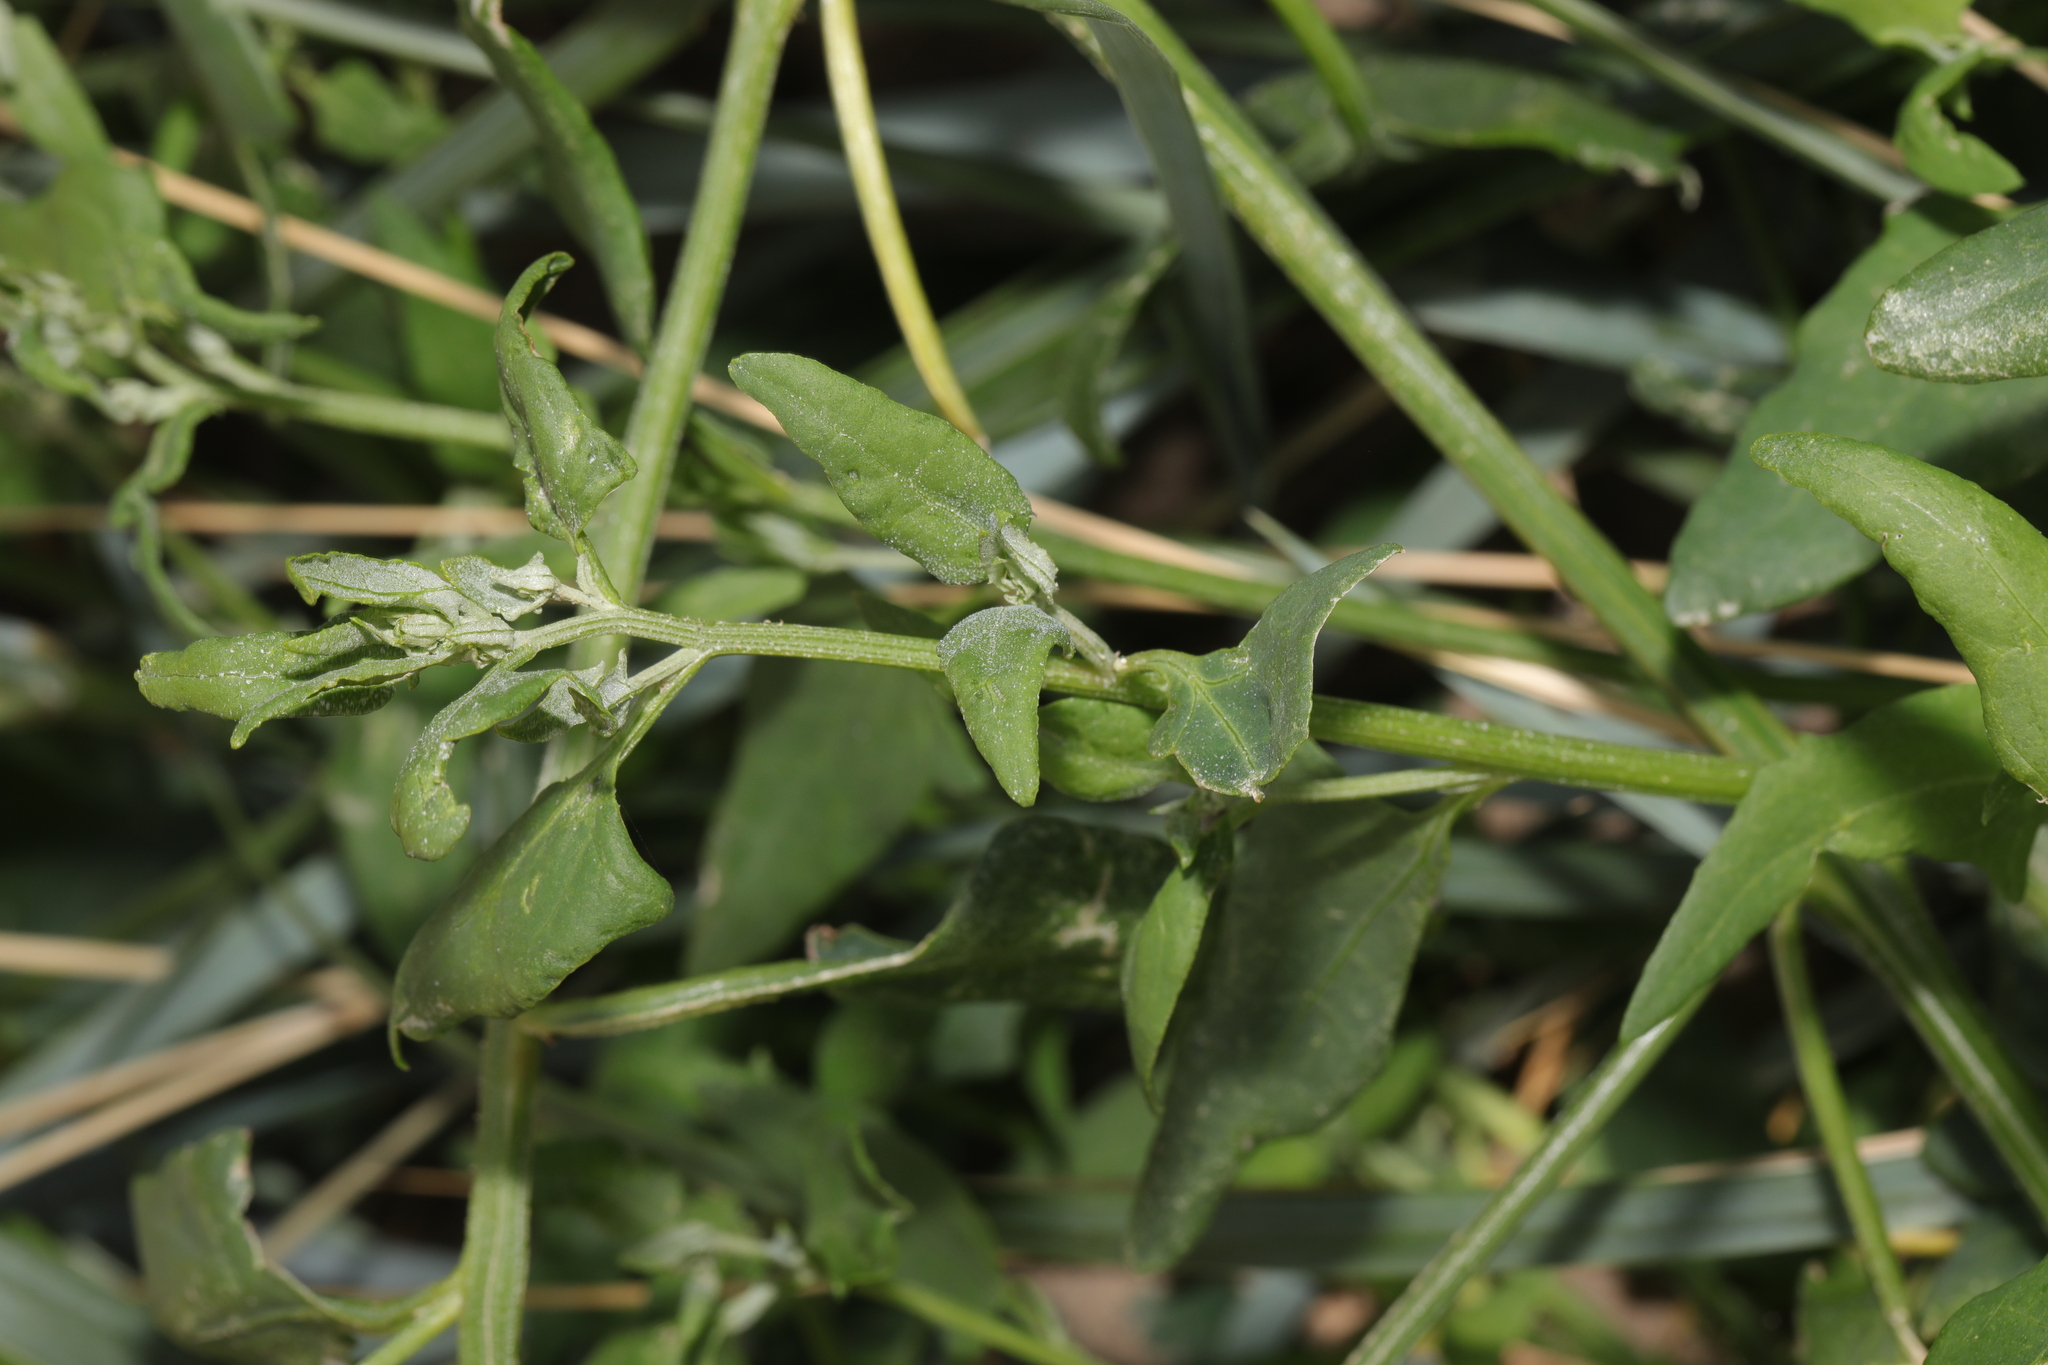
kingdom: Plantae
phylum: Tracheophyta
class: Magnoliopsida
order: Caryophyllales
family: Amaranthaceae
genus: Atriplex
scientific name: Atriplex prostrata
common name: Spear-leaved orache
